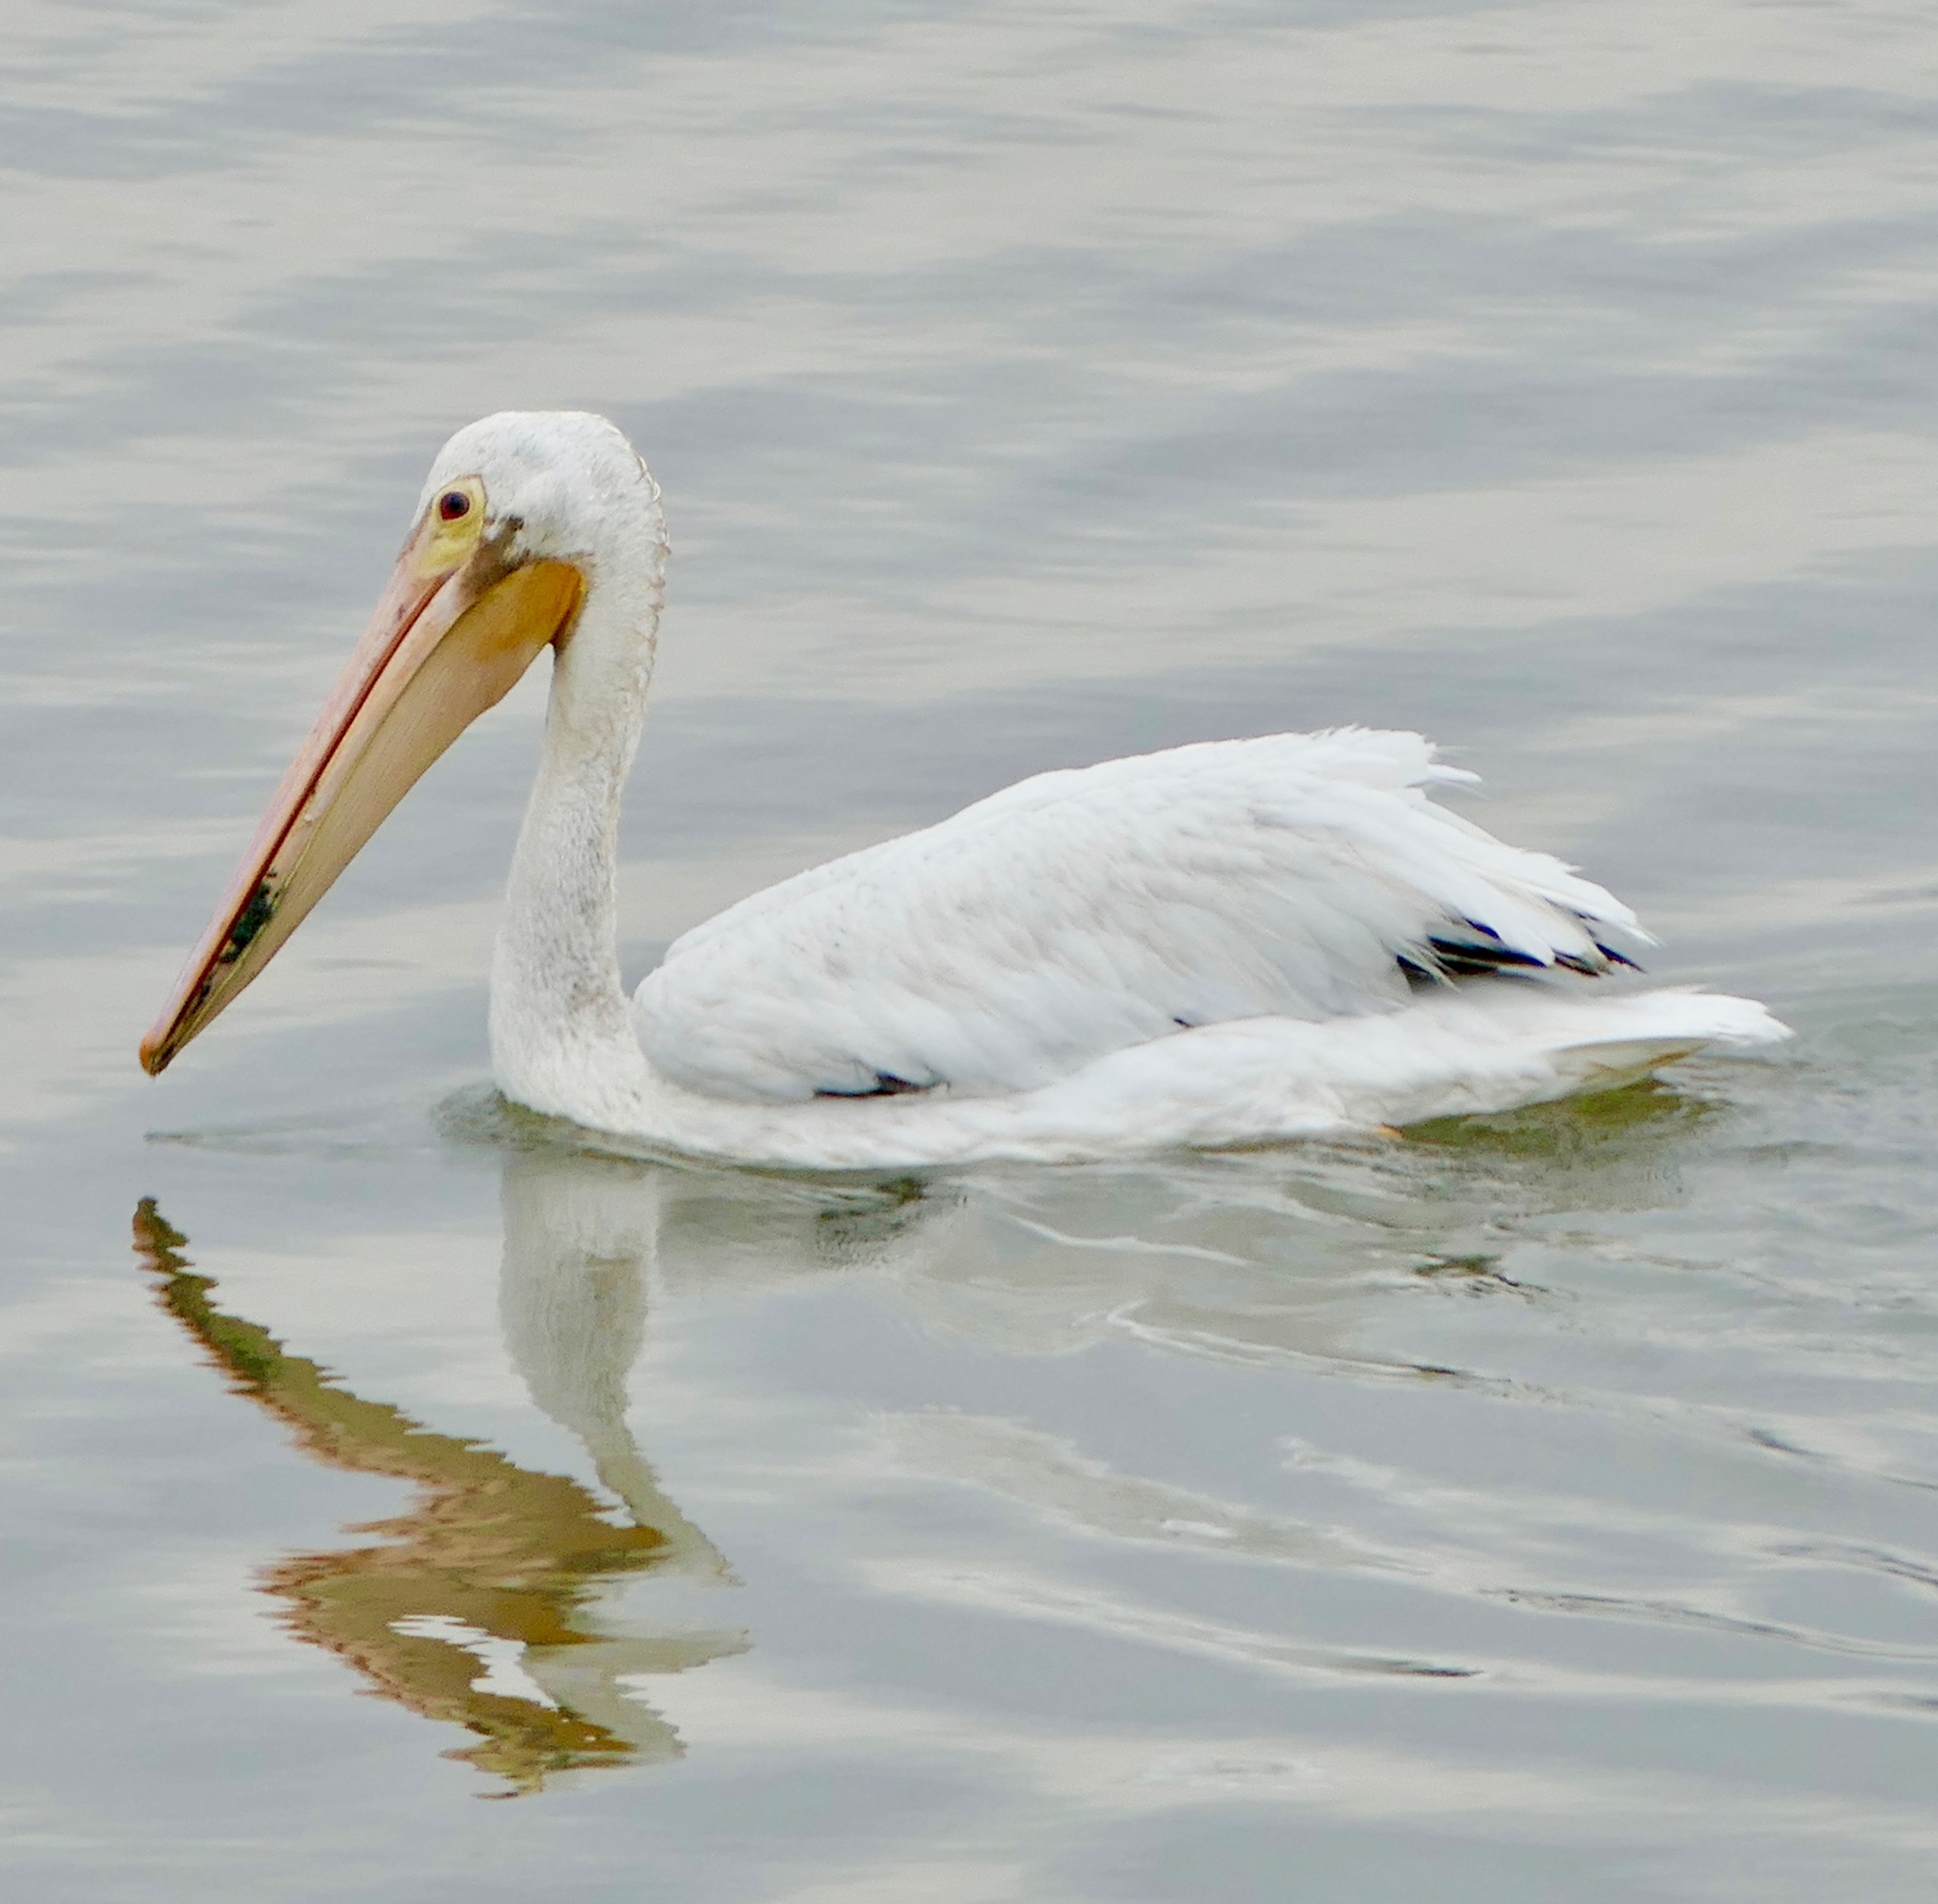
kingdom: Animalia
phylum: Chordata
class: Aves
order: Pelecaniformes
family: Pelecanidae
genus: Pelecanus
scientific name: Pelecanus erythrorhynchos
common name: American white pelican
